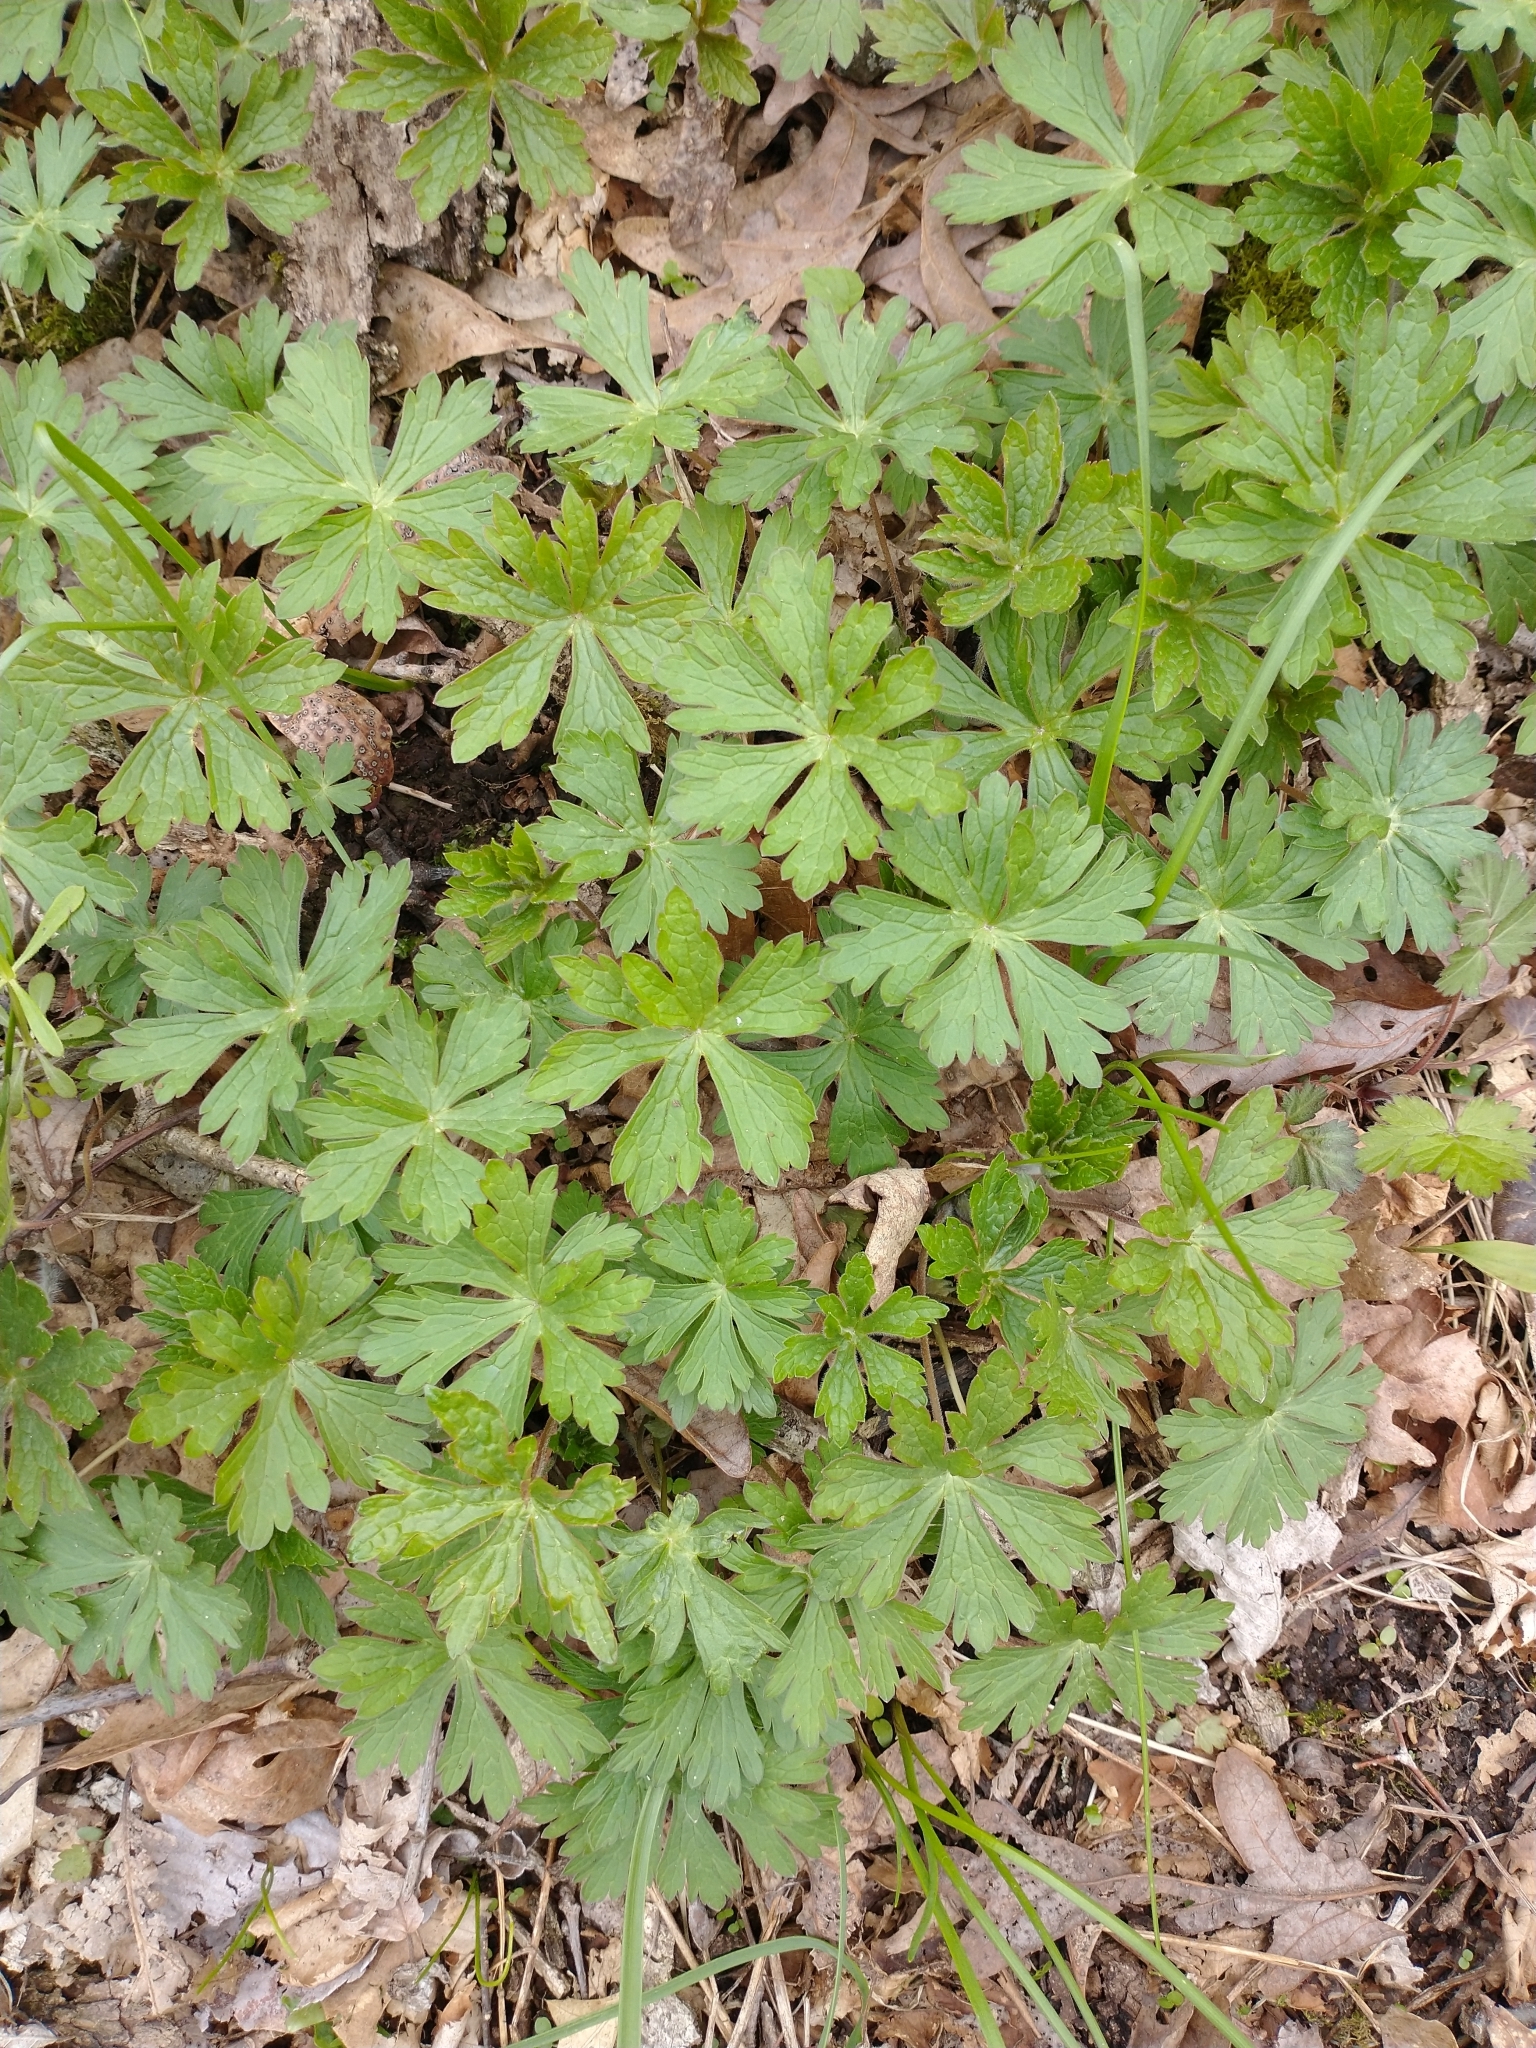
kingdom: Plantae
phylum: Tracheophyta
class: Magnoliopsida
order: Geraniales
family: Geraniaceae
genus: Geranium
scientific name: Geranium maculatum
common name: Spotted geranium
